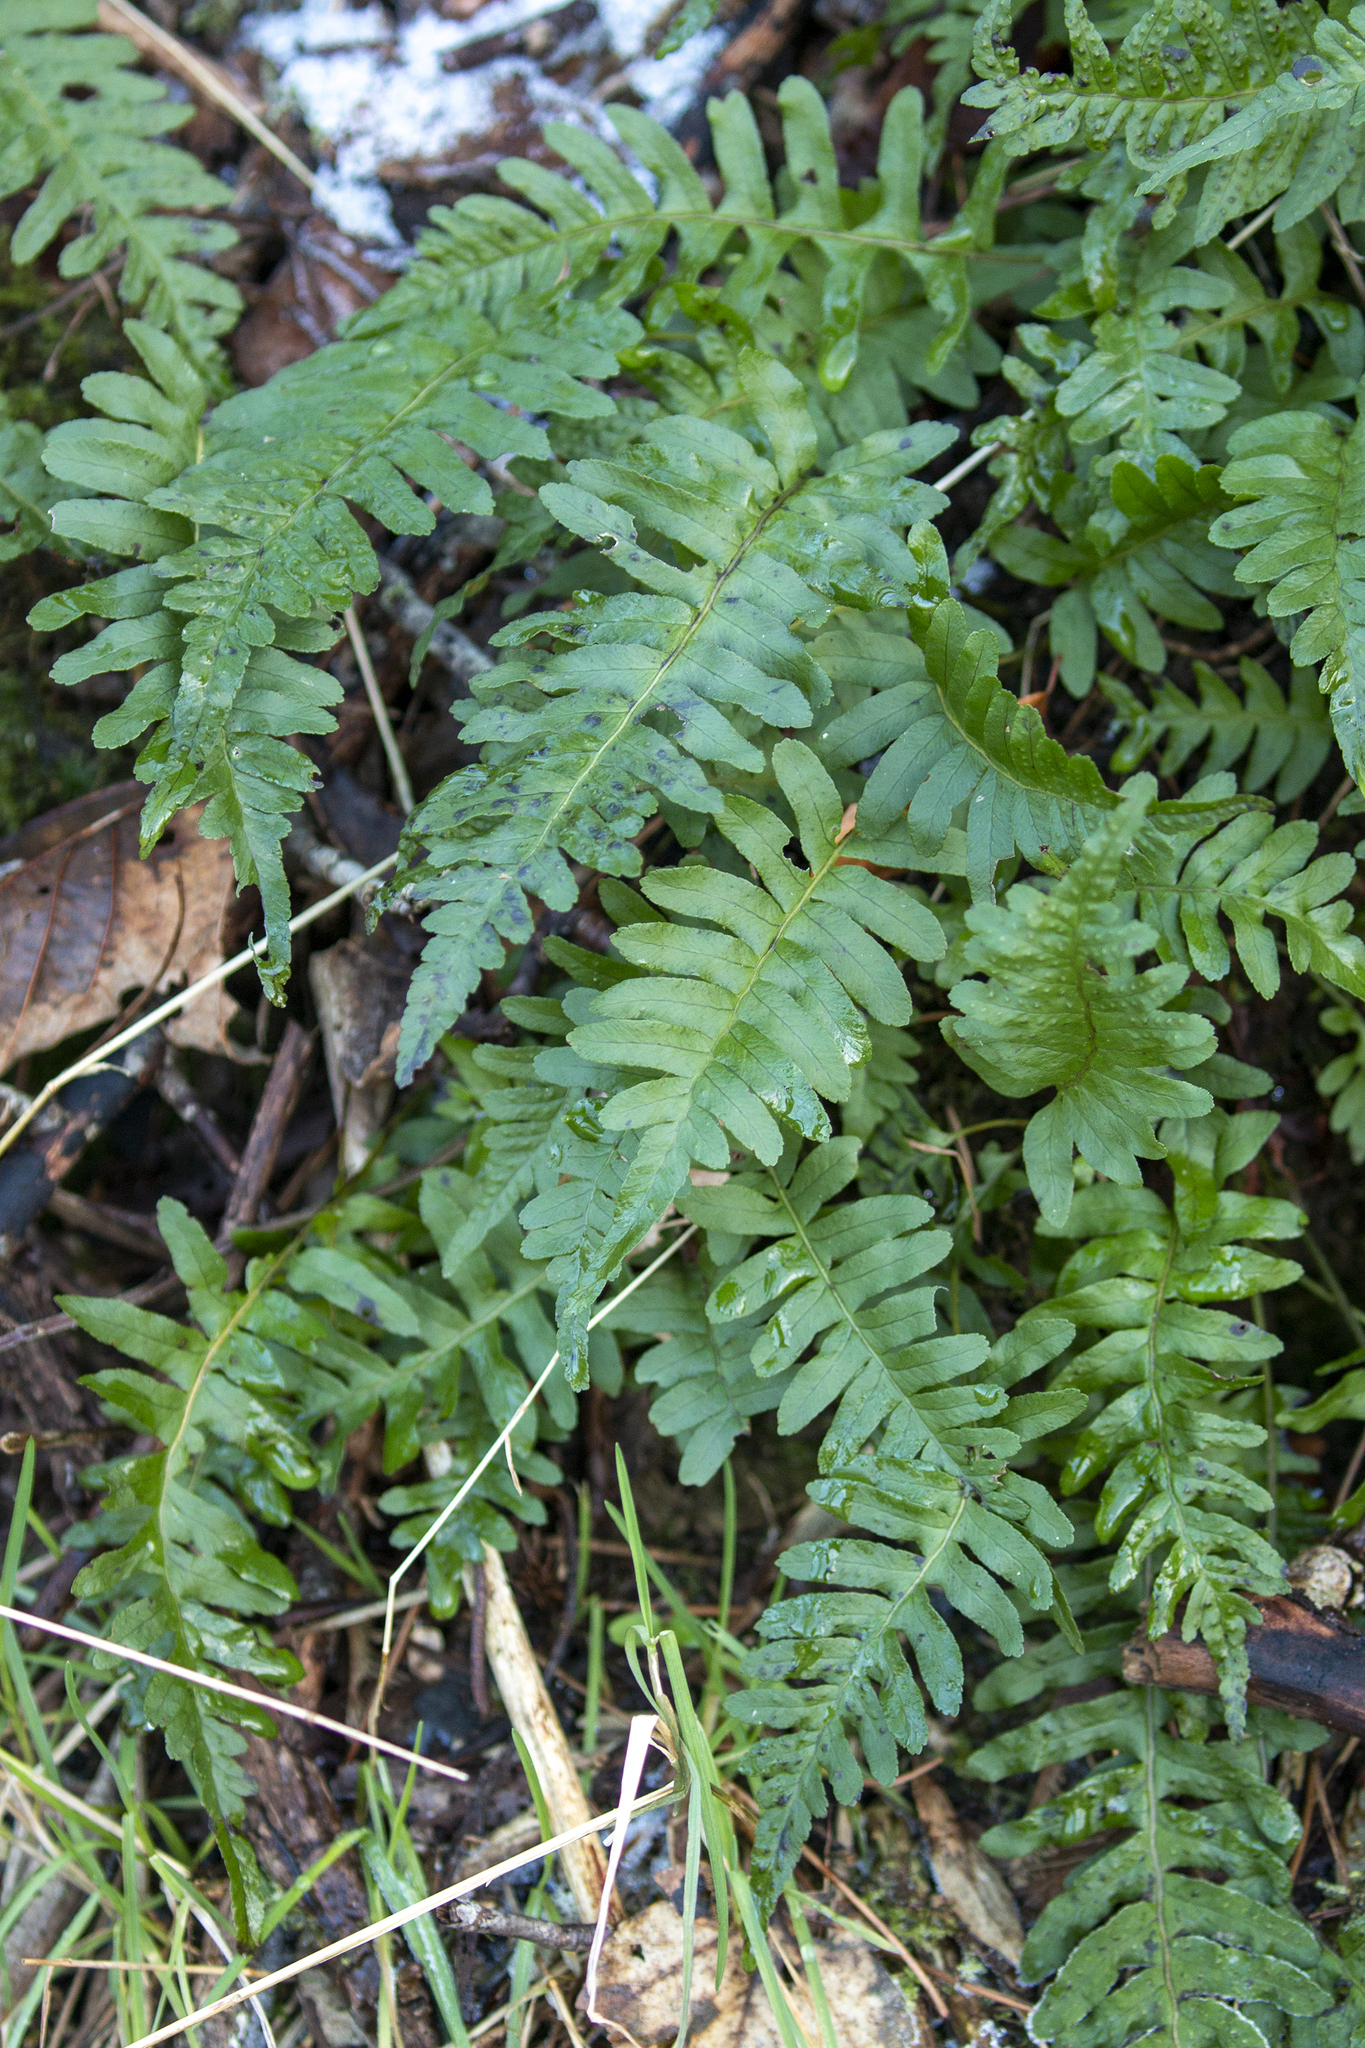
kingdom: Plantae
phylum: Tracheophyta
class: Polypodiopsida
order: Polypodiales
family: Polypodiaceae
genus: Polypodium
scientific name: Polypodium vulgare
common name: Common polypody
